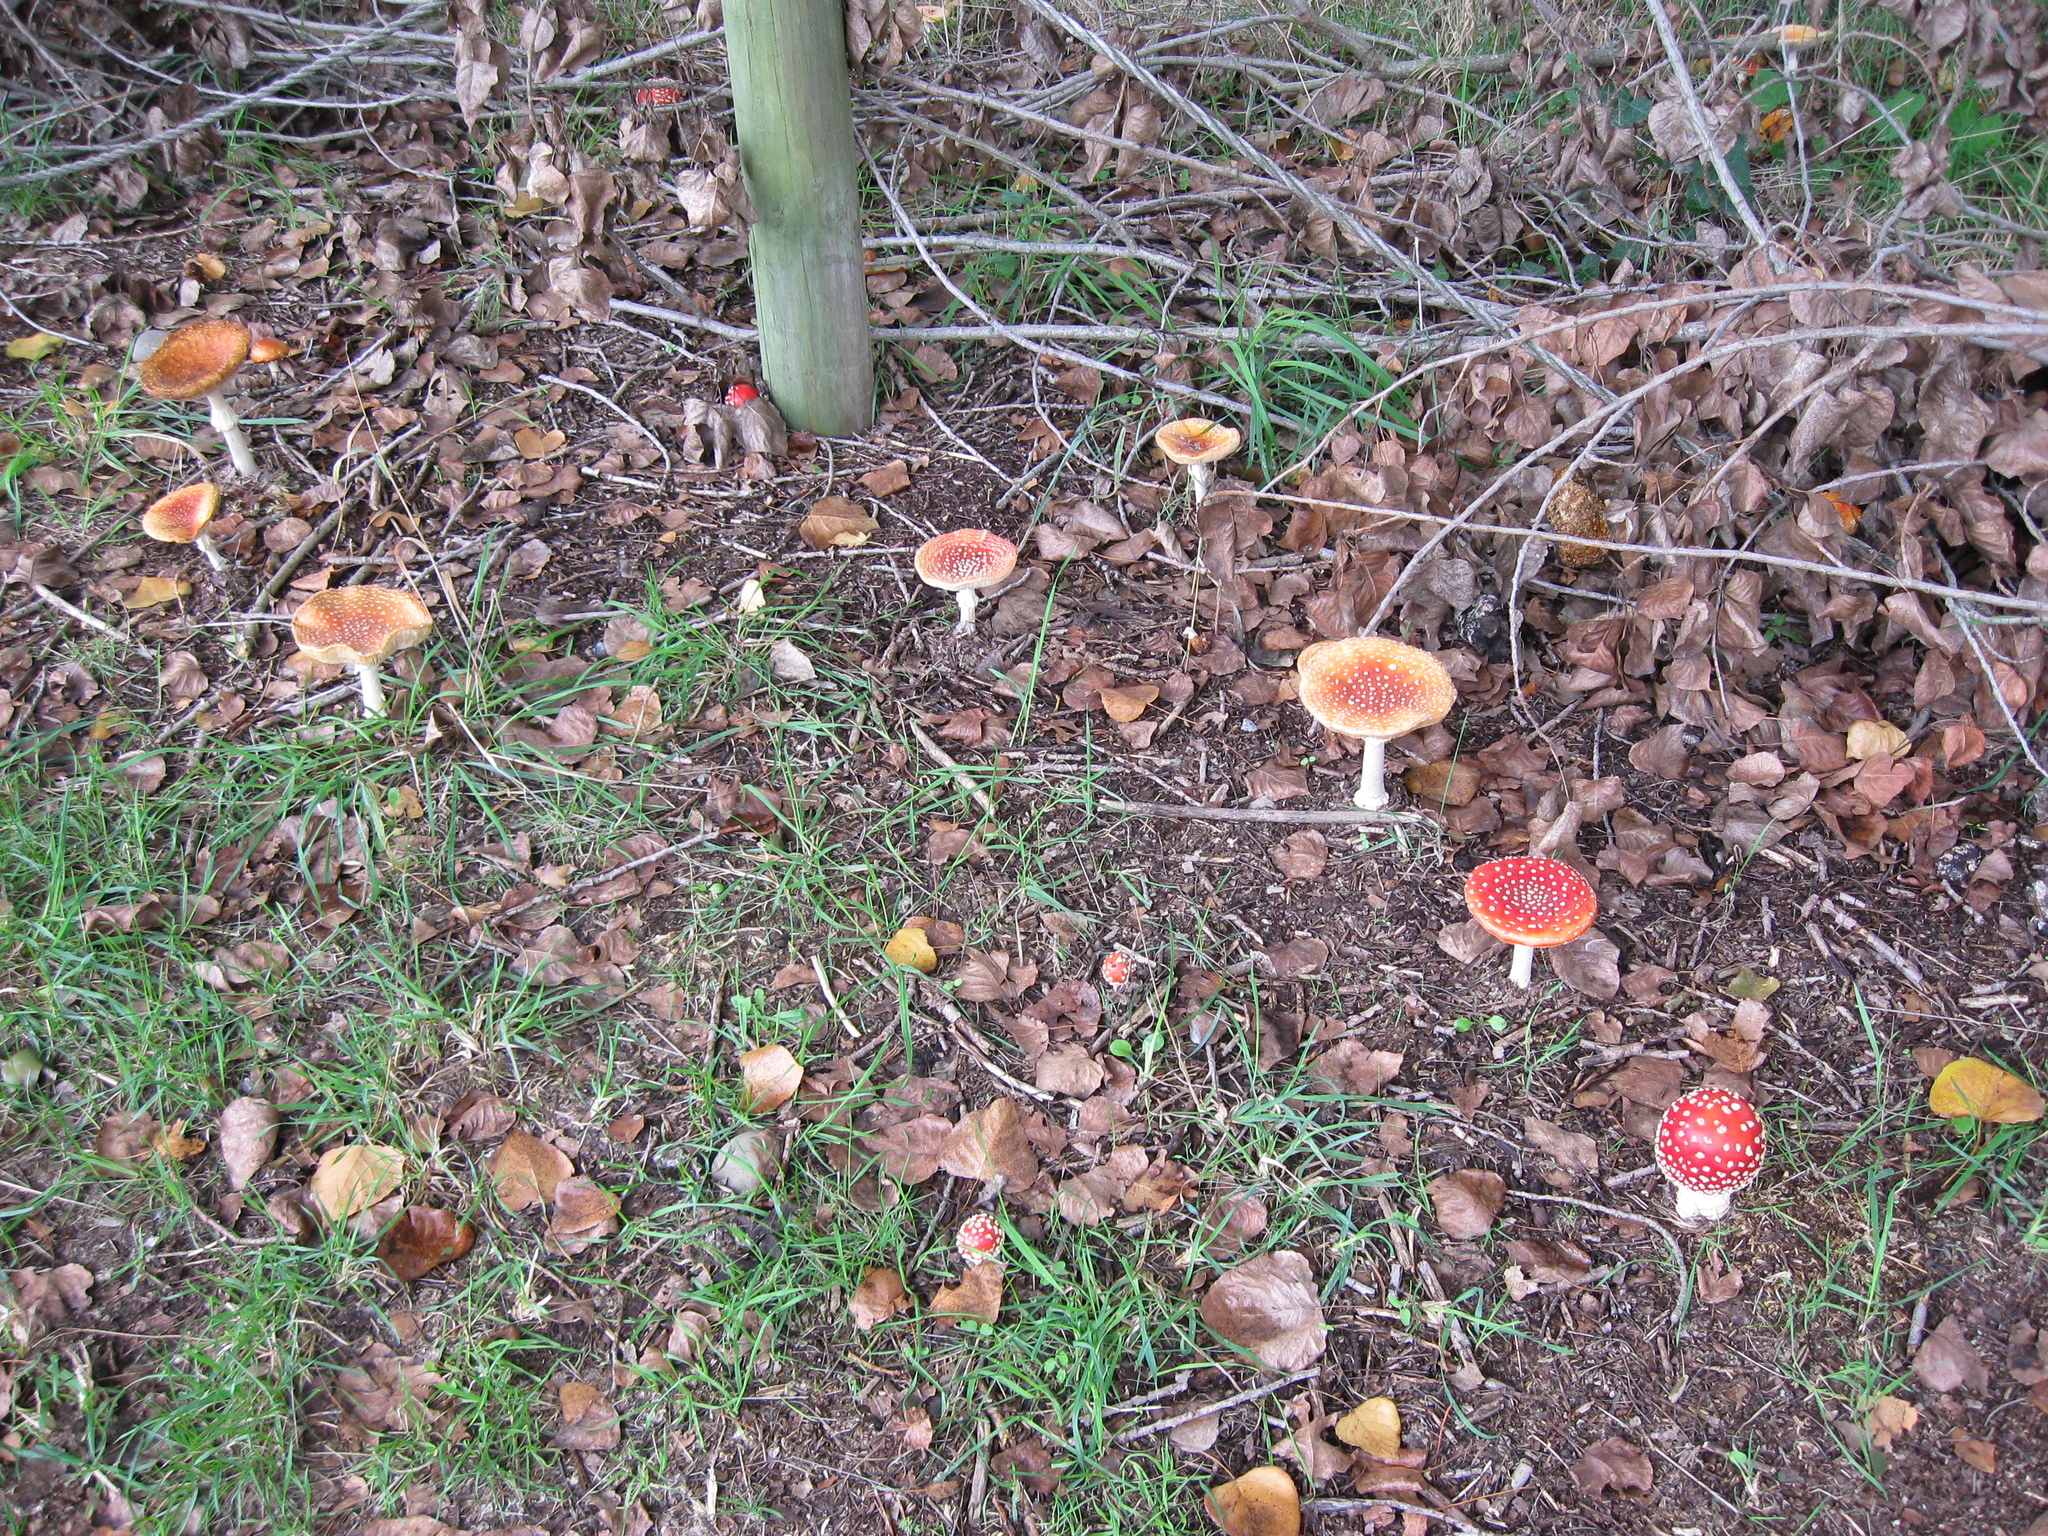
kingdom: Fungi
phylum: Basidiomycota
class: Agaricomycetes
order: Agaricales
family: Amanitaceae
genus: Amanita
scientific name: Amanita muscaria
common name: Fly agaric
